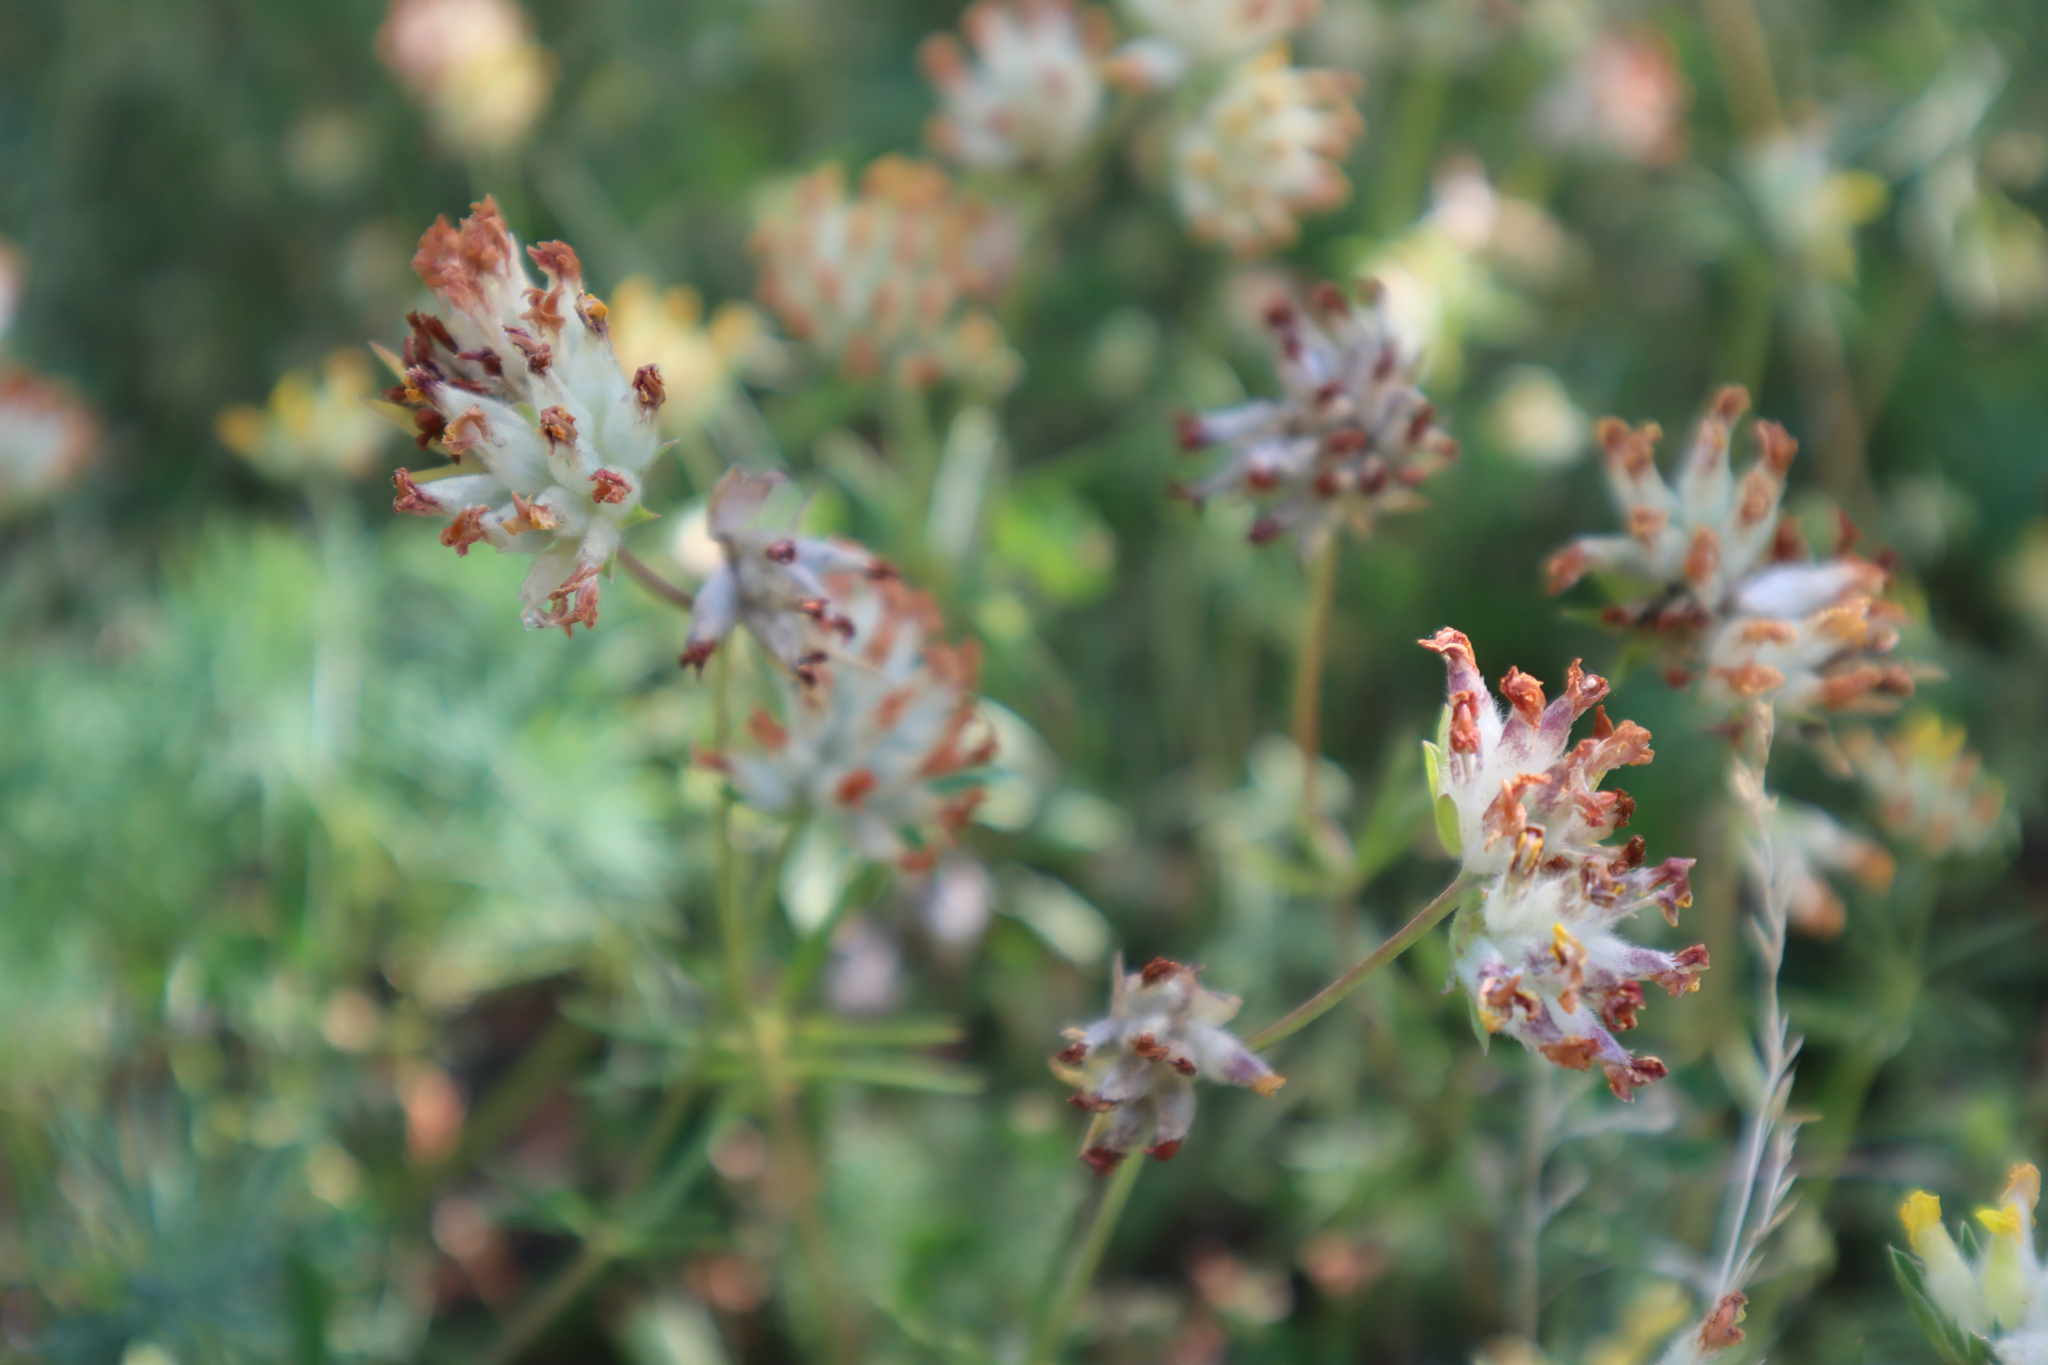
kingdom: Plantae
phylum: Tracheophyta
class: Magnoliopsida
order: Fabales
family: Fabaceae
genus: Anthyllis
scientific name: Anthyllis vulneraria
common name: Kidney vetch
